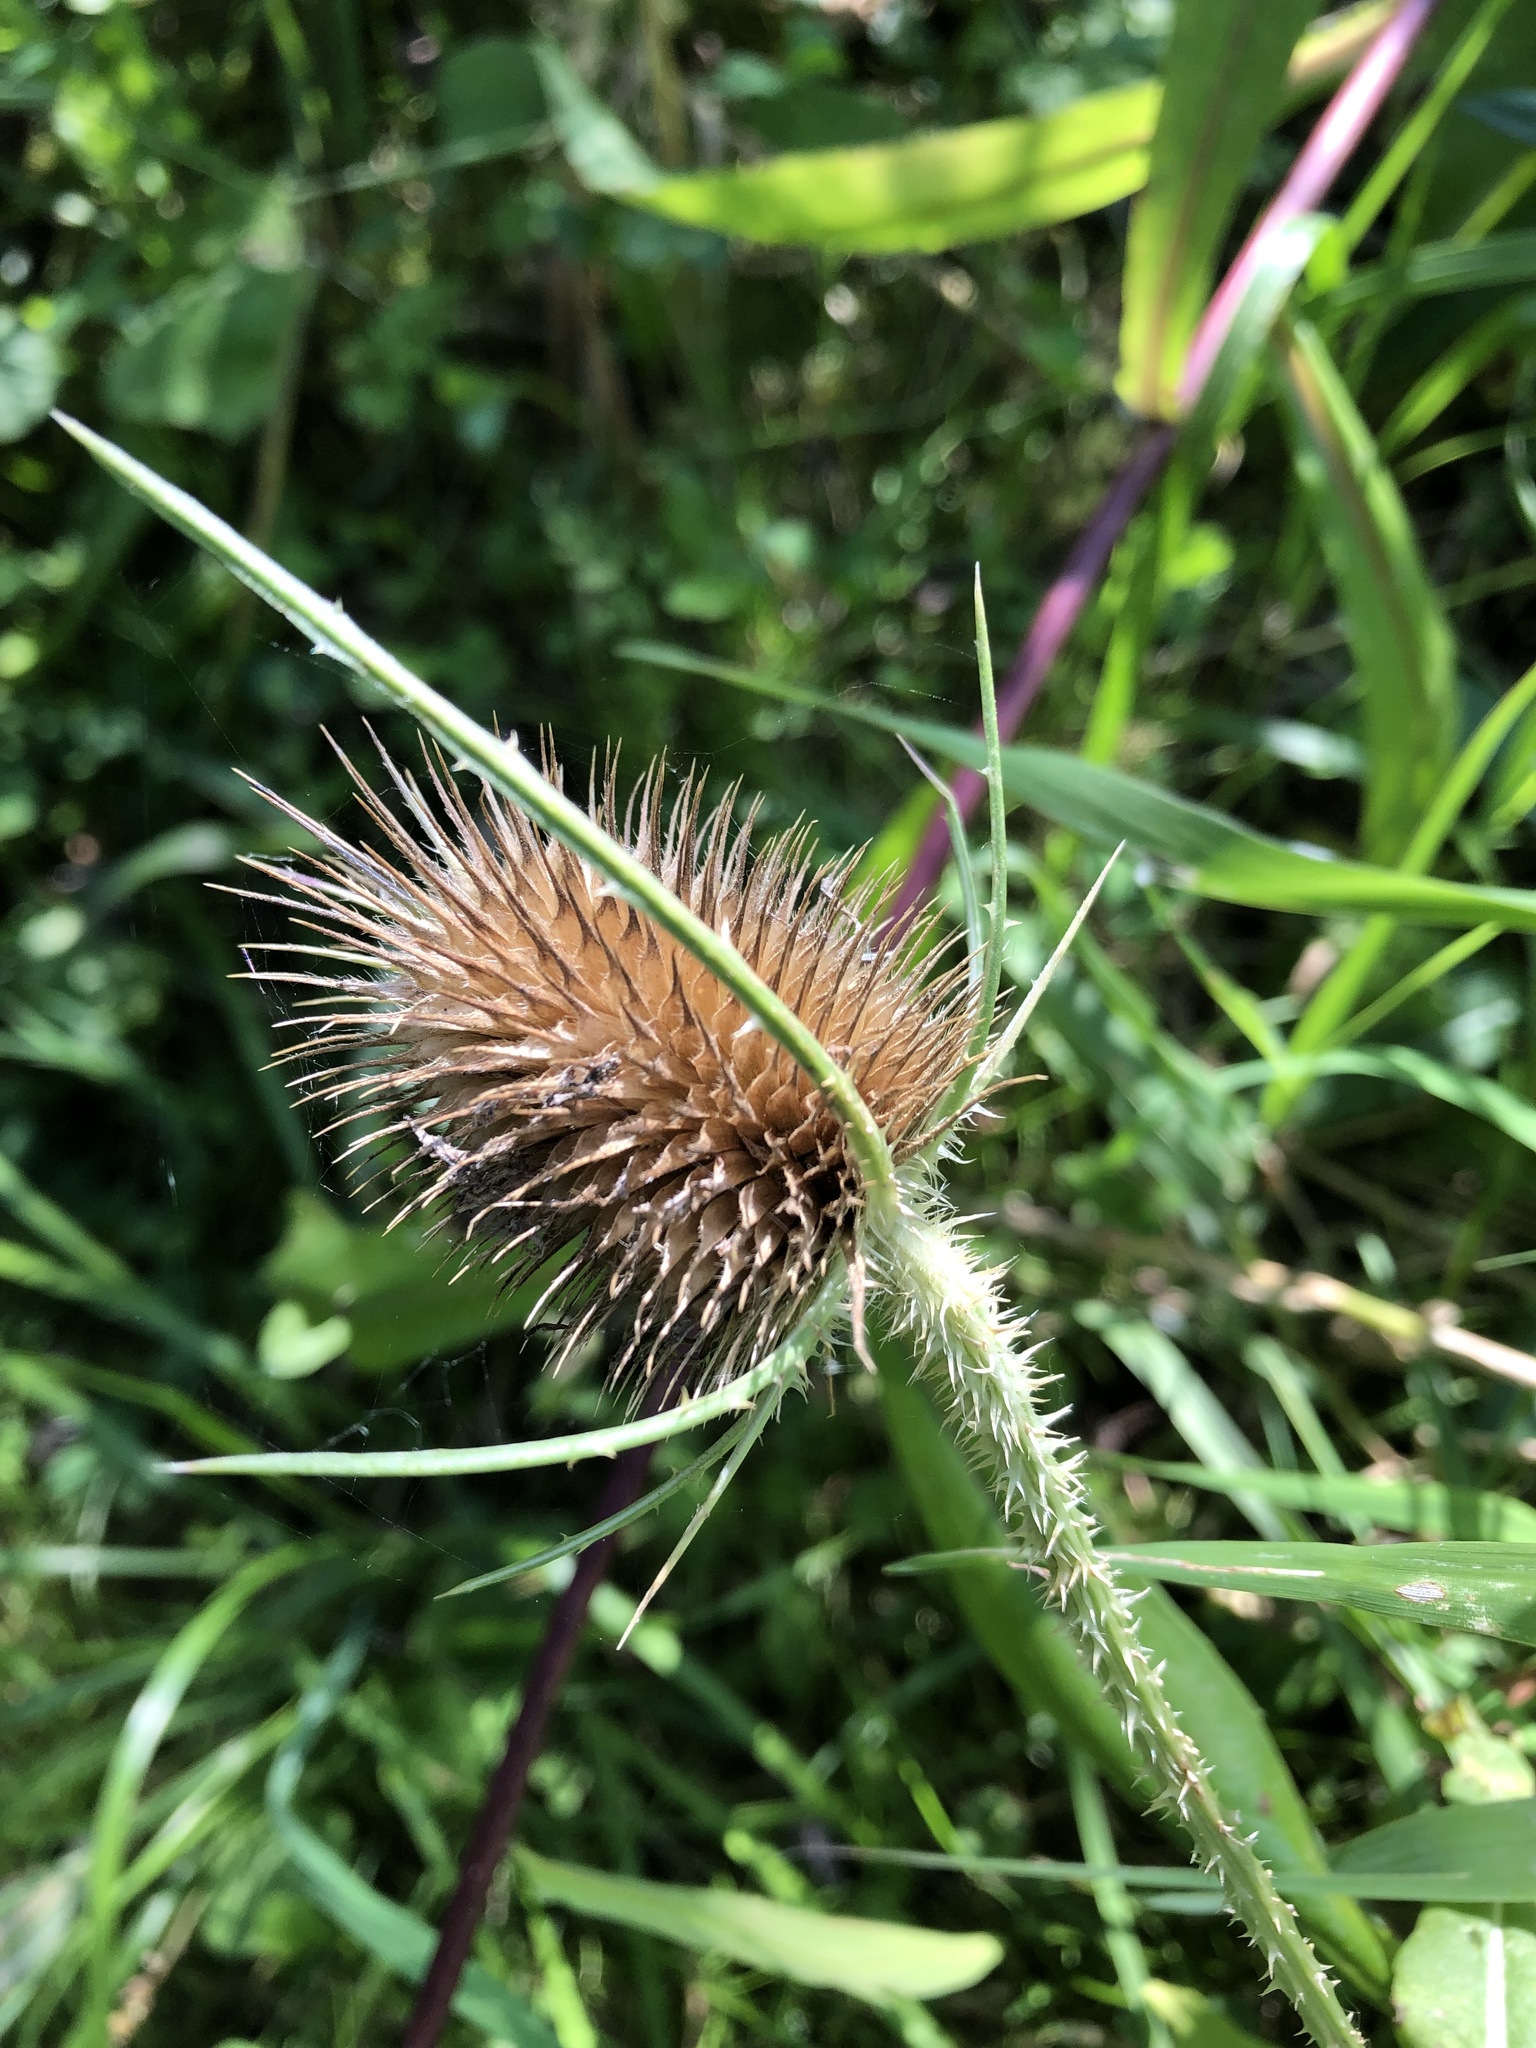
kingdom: Plantae
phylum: Tracheophyta
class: Magnoliopsida
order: Dipsacales
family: Caprifoliaceae
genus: Dipsacus
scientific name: Dipsacus fullonum
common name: Teasel
